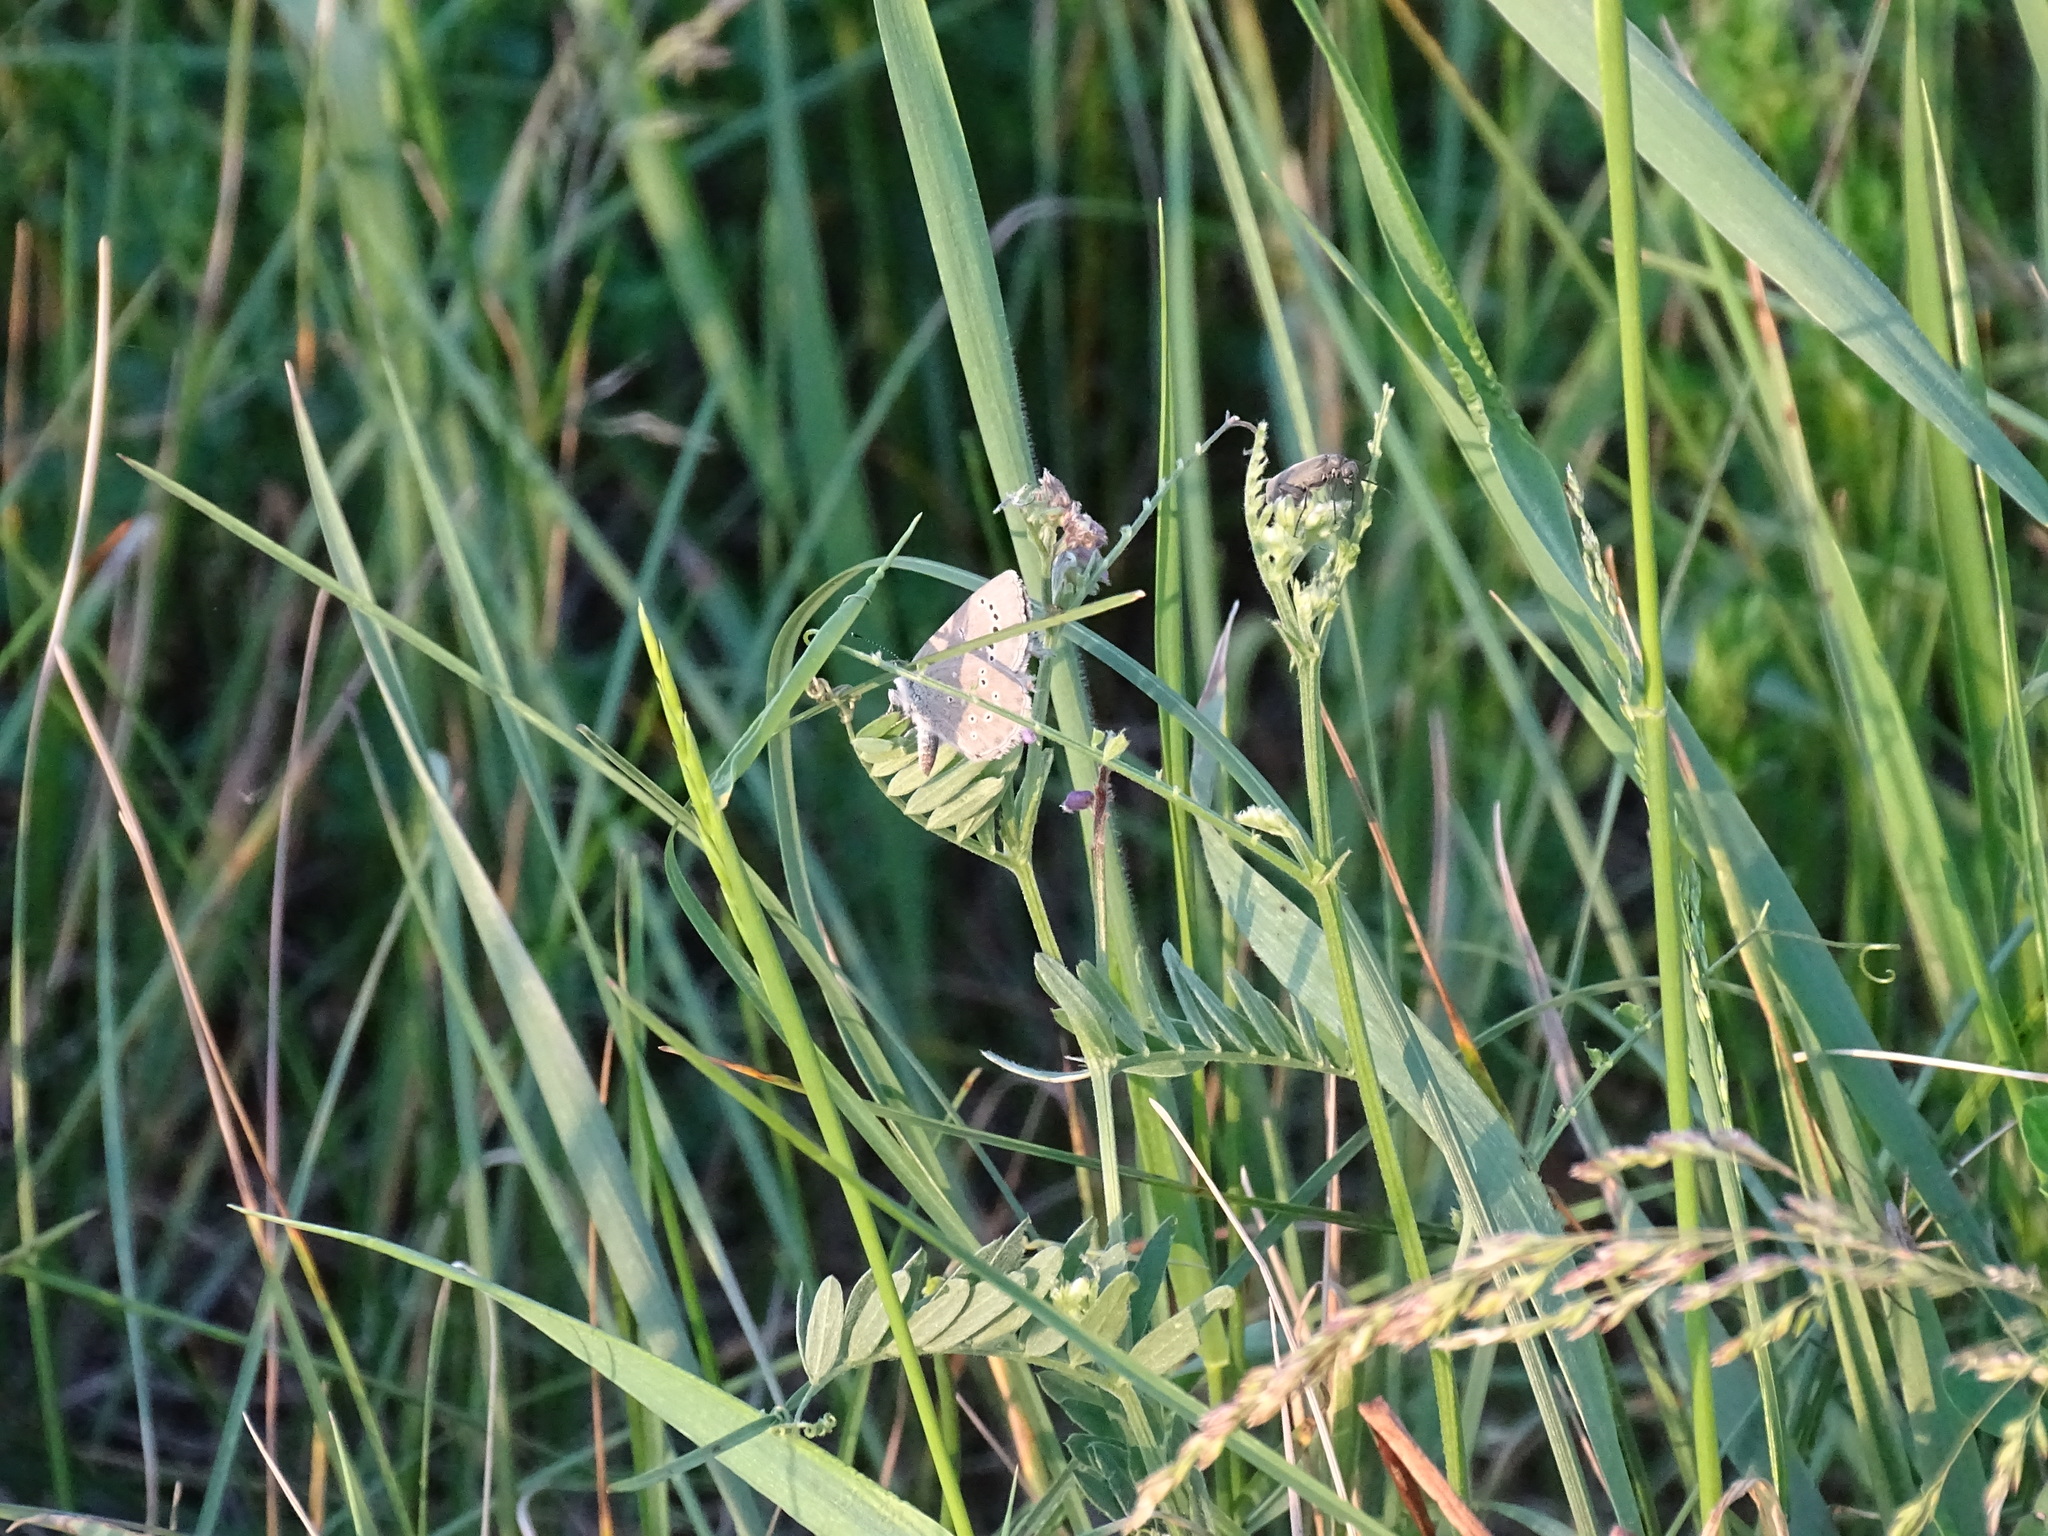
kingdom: Animalia
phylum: Arthropoda
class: Insecta
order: Lepidoptera
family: Lycaenidae
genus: Glaucopsyche
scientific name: Glaucopsyche lygdamus
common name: Silvery blue
